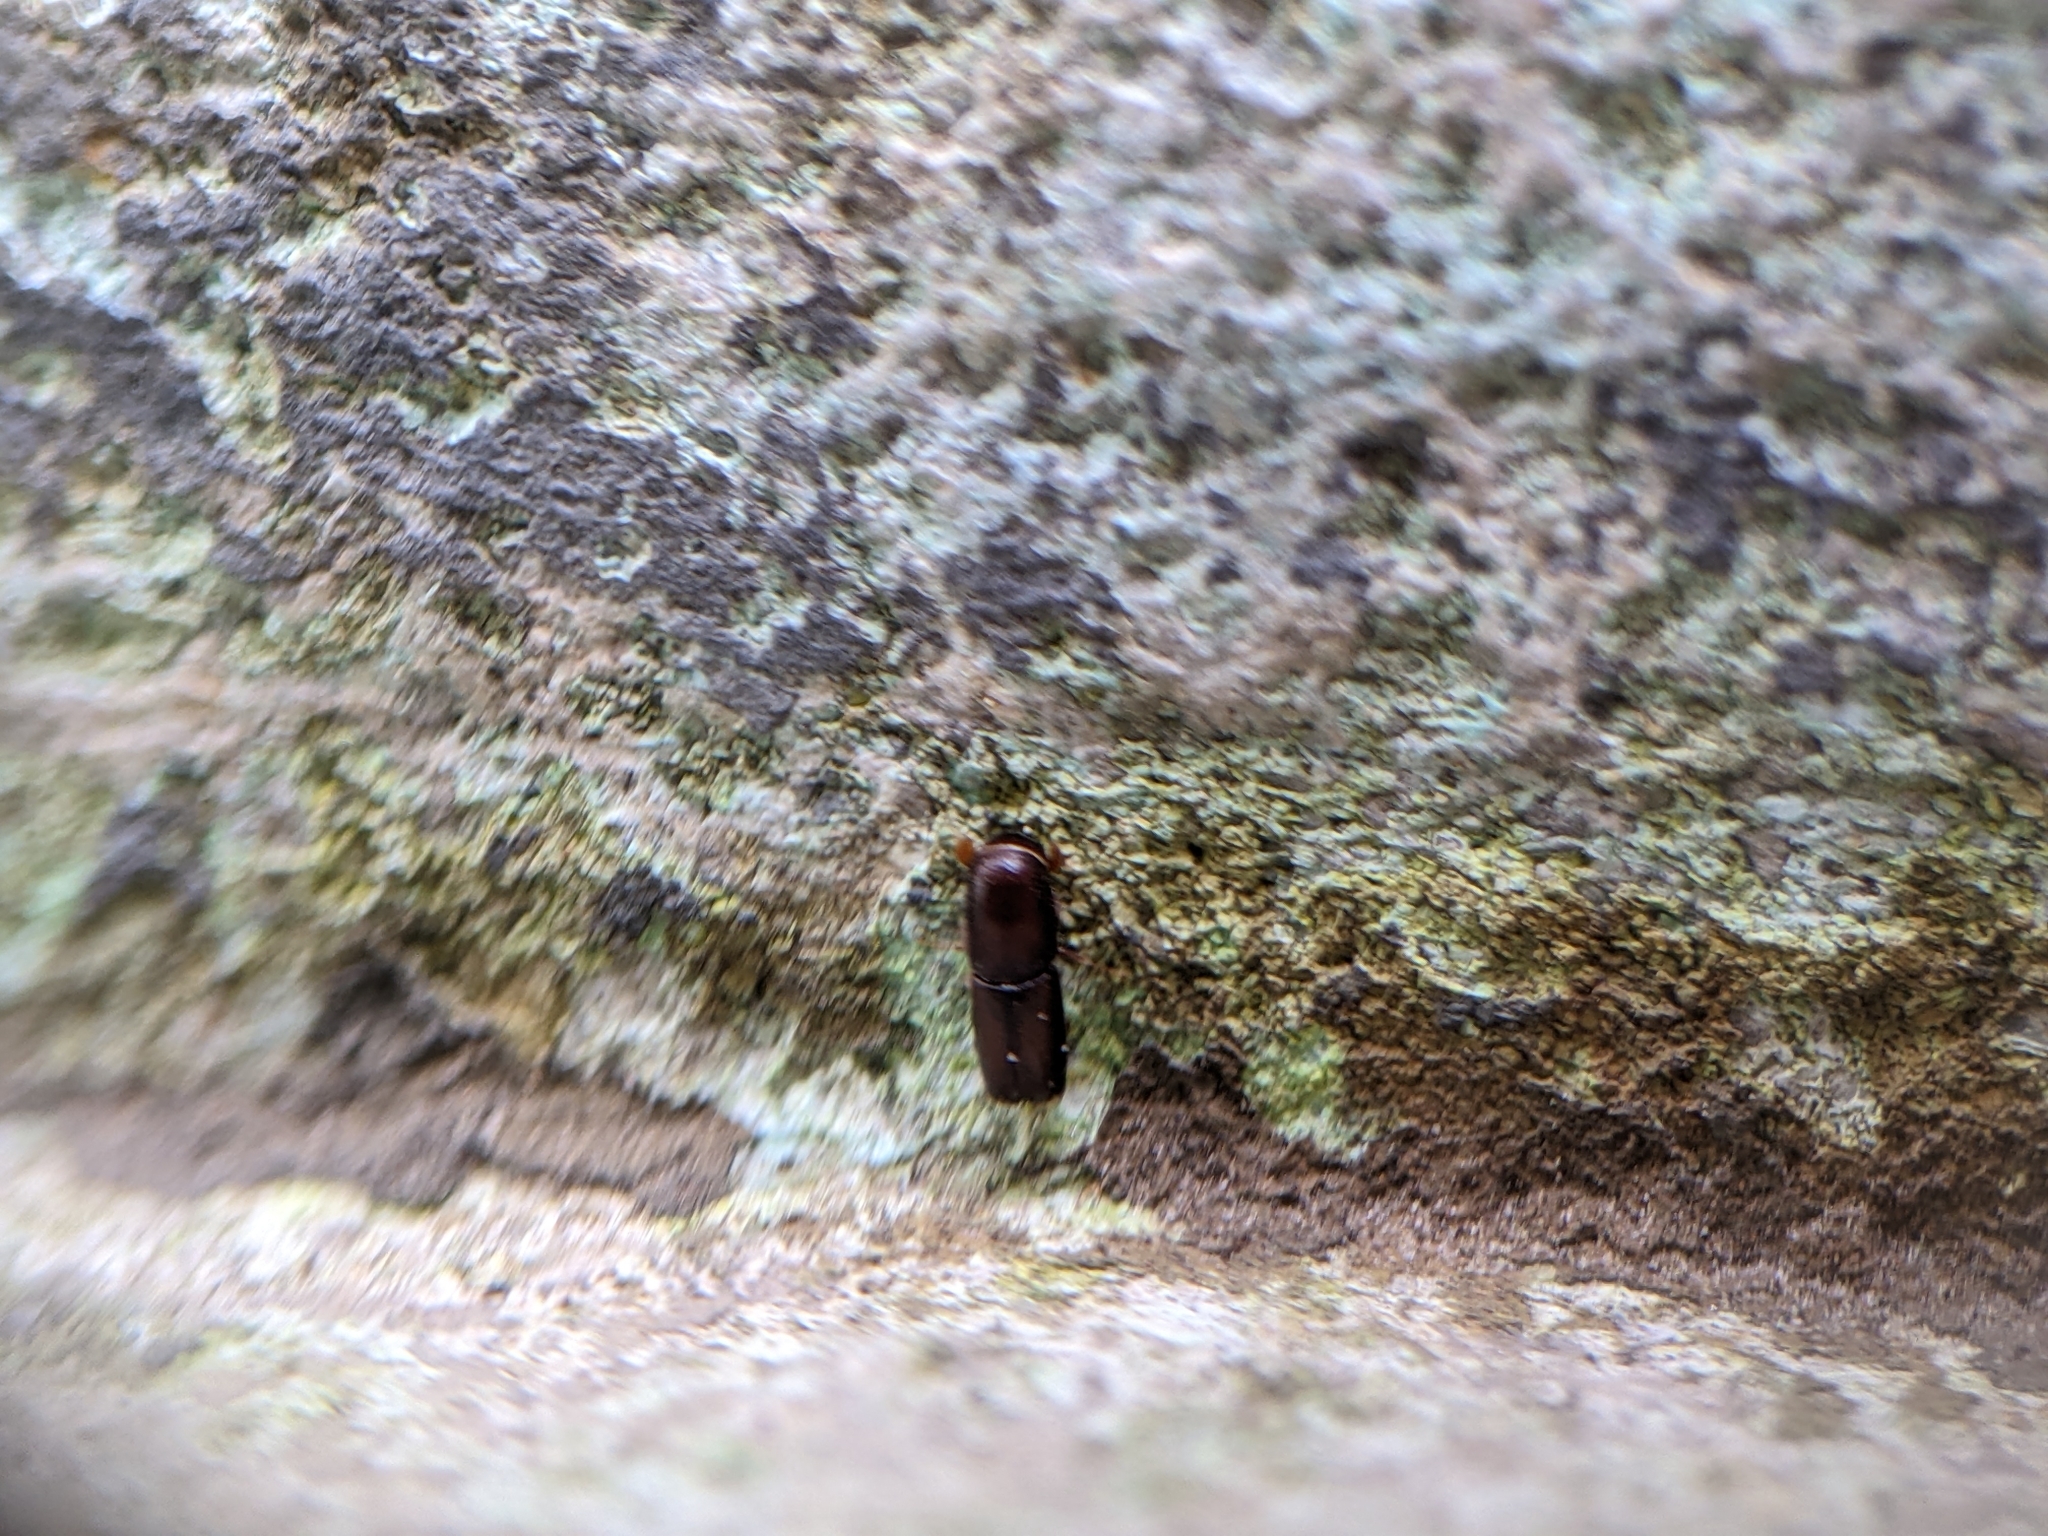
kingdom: Animalia
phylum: Arthropoda
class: Insecta
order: Coleoptera
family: Curculionidae
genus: Monarthrum
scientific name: Monarthrum mali
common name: Bark beetle
